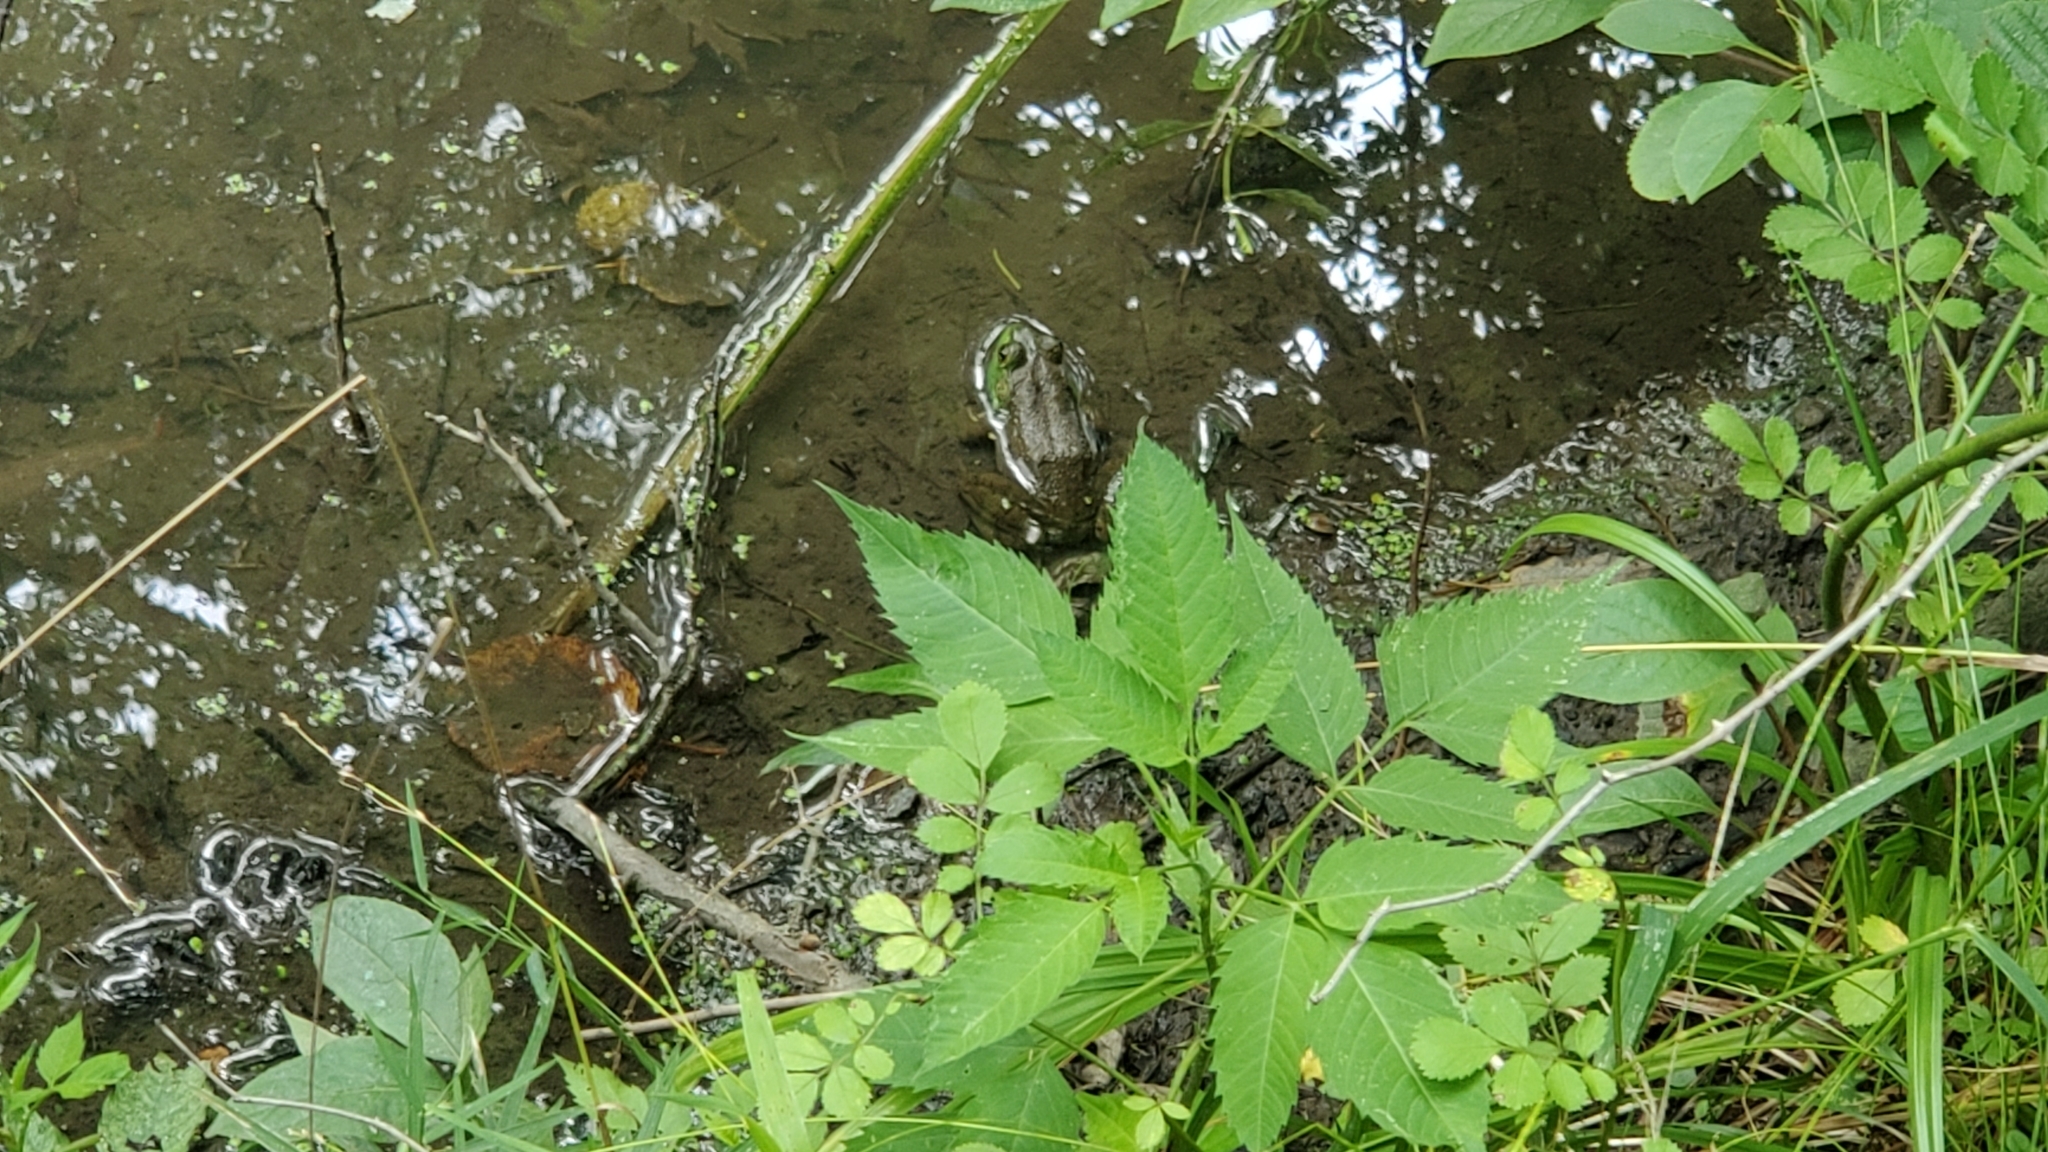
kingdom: Animalia
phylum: Chordata
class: Amphibia
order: Anura
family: Ranidae
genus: Lithobates
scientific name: Lithobates catesbeianus
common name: American bullfrog
